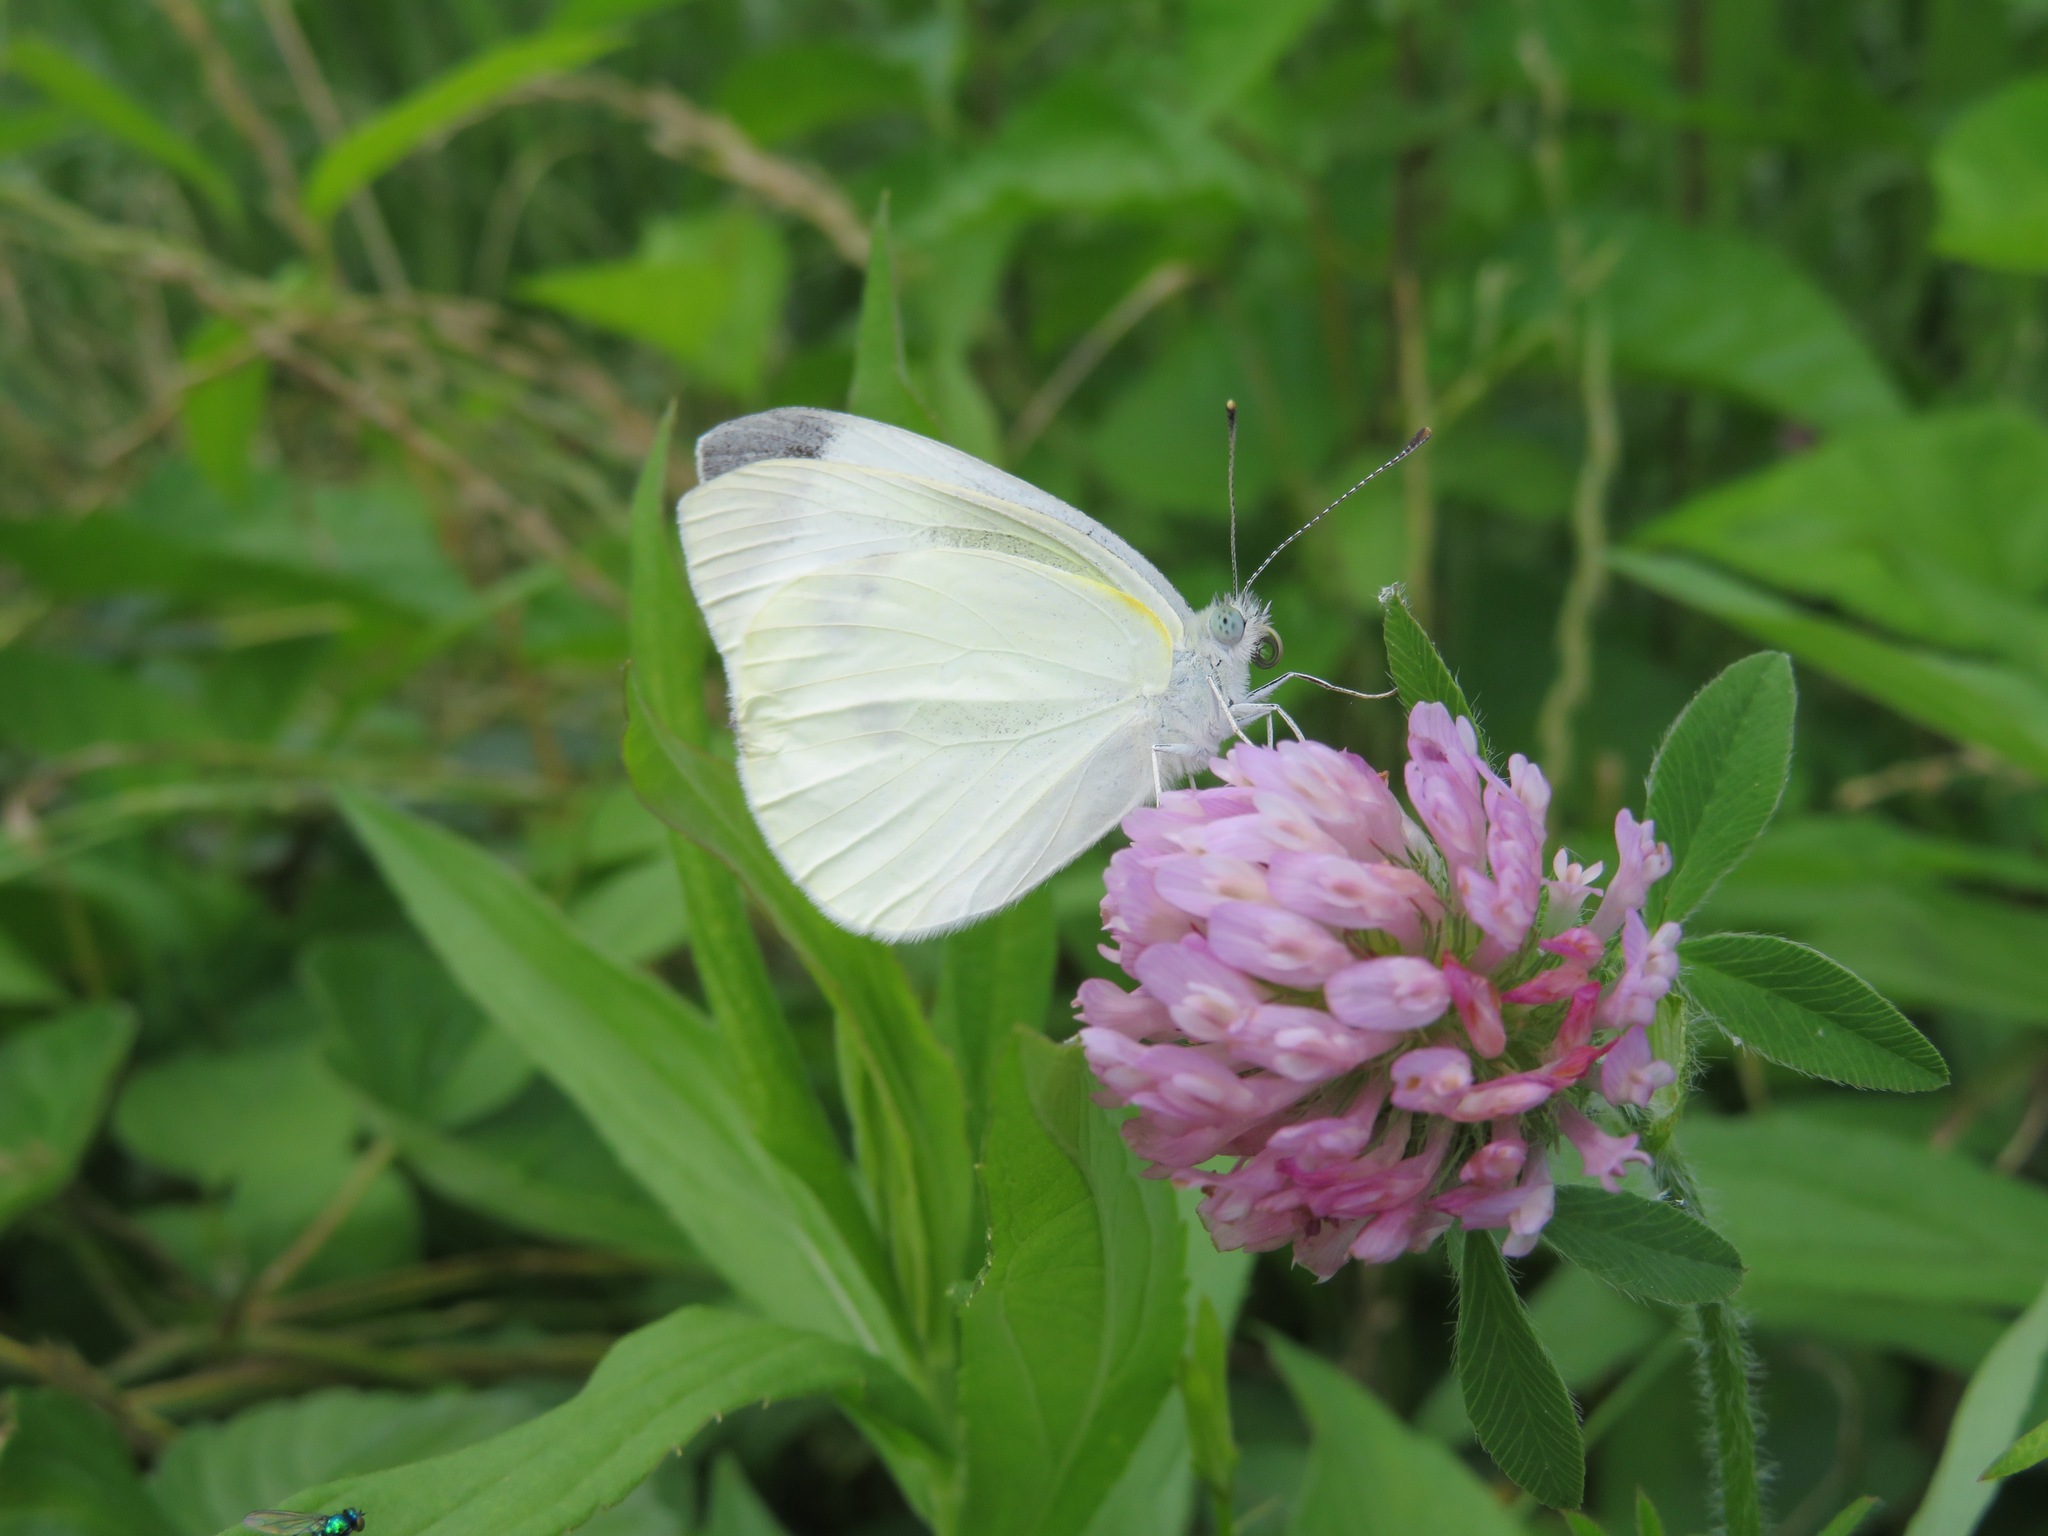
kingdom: Animalia
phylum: Arthropoda
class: Insecta
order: Lepidoptera
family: Pieridae
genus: Pieris
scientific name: Pieris rapae
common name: Small white
